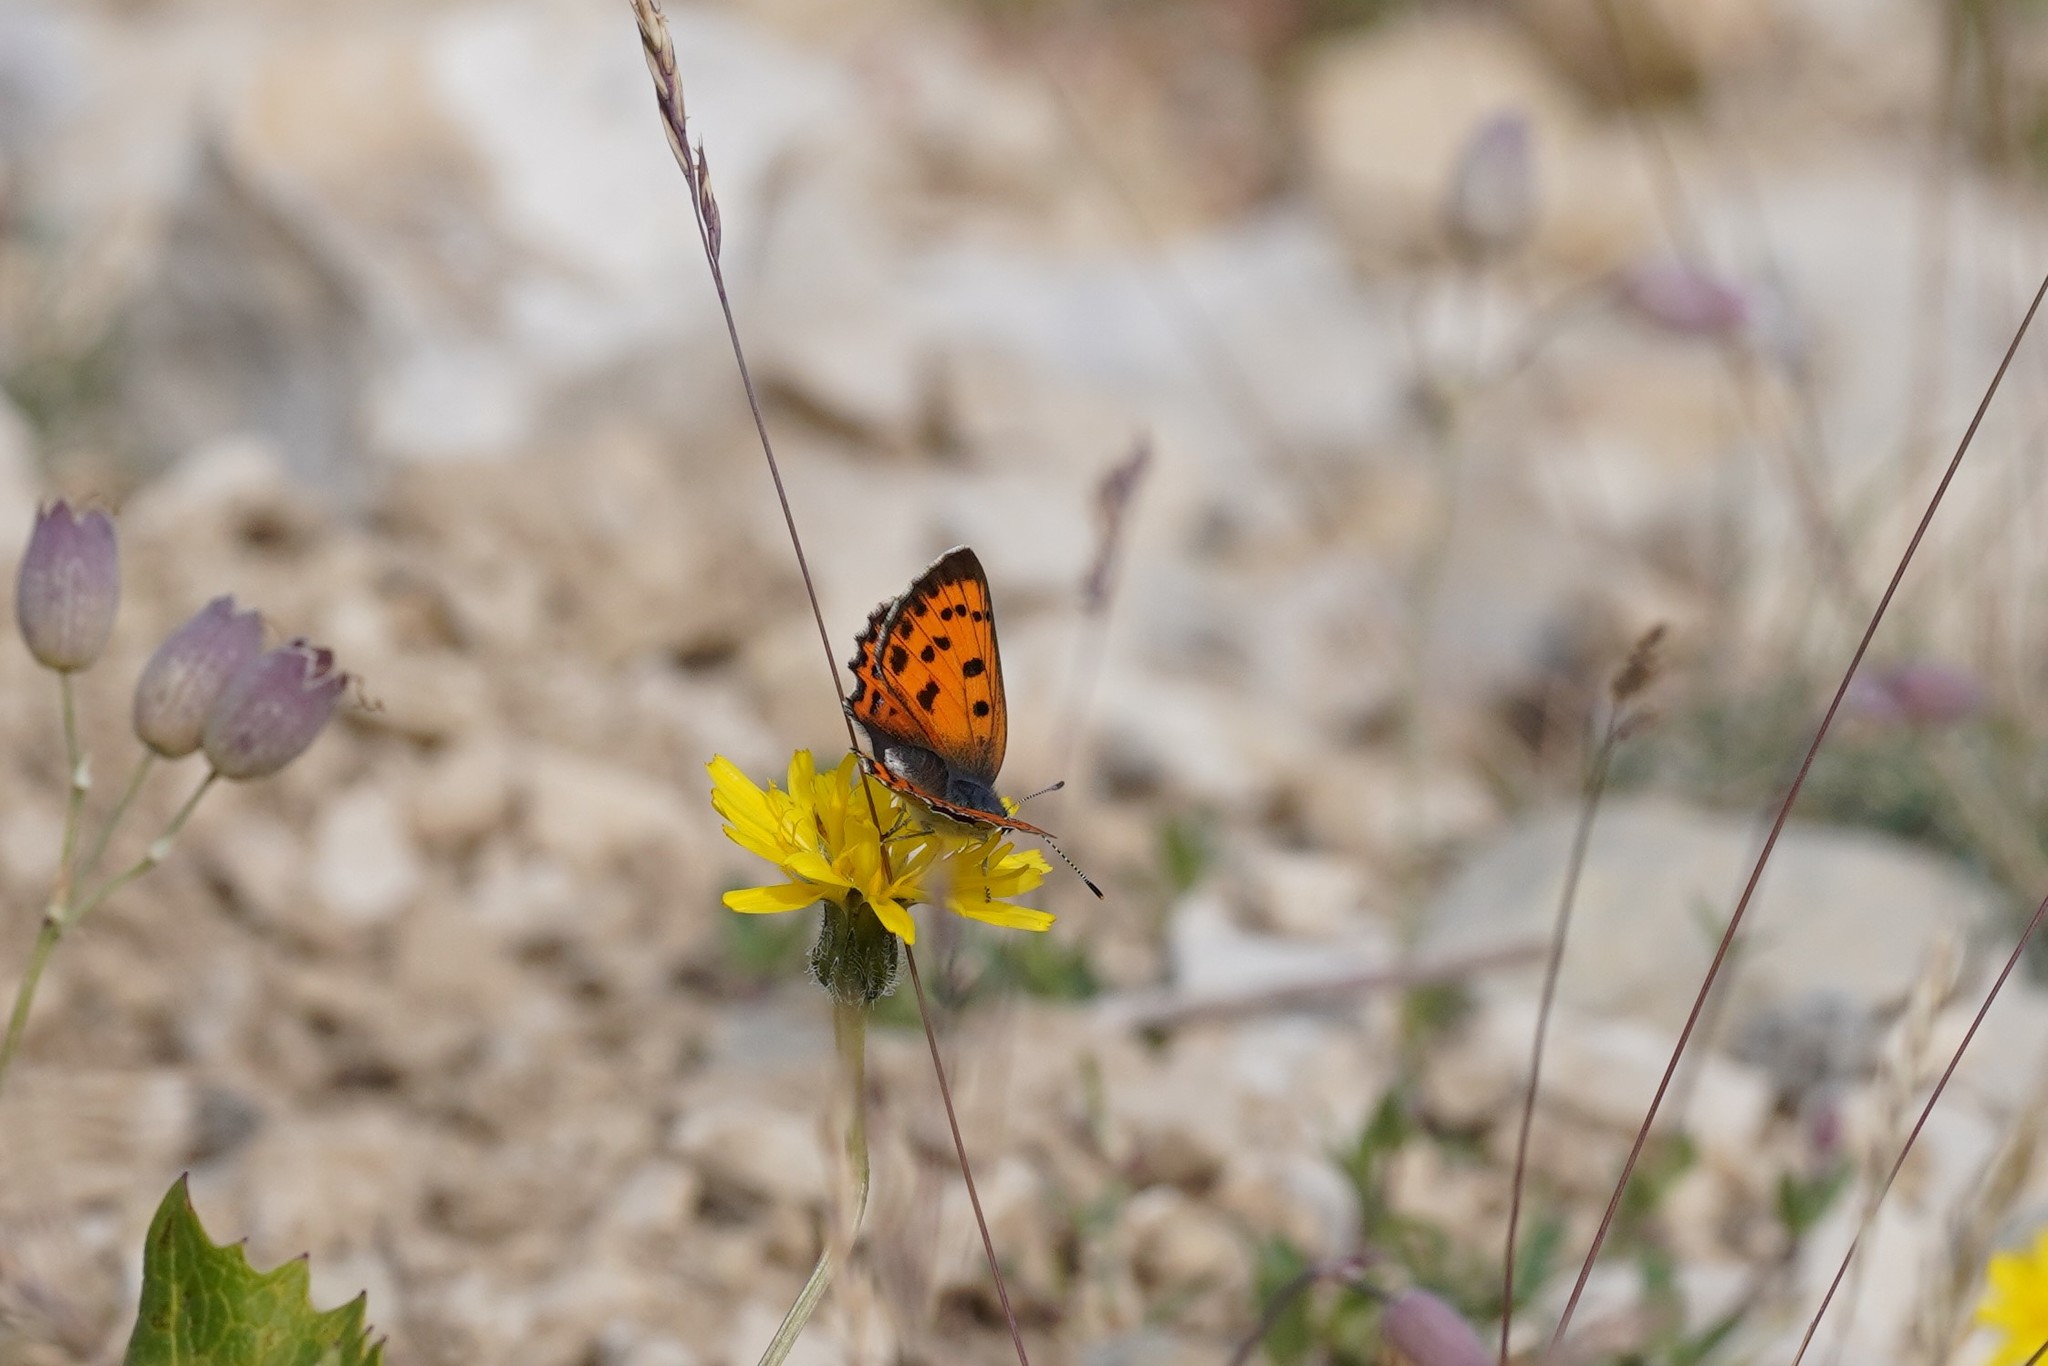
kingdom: Animalia
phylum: Arthropoda
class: Insecta
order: Lepidoptera
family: Lycaenidae
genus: Lycaena
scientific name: Lycaena alciphron
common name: Purple-shot copper
